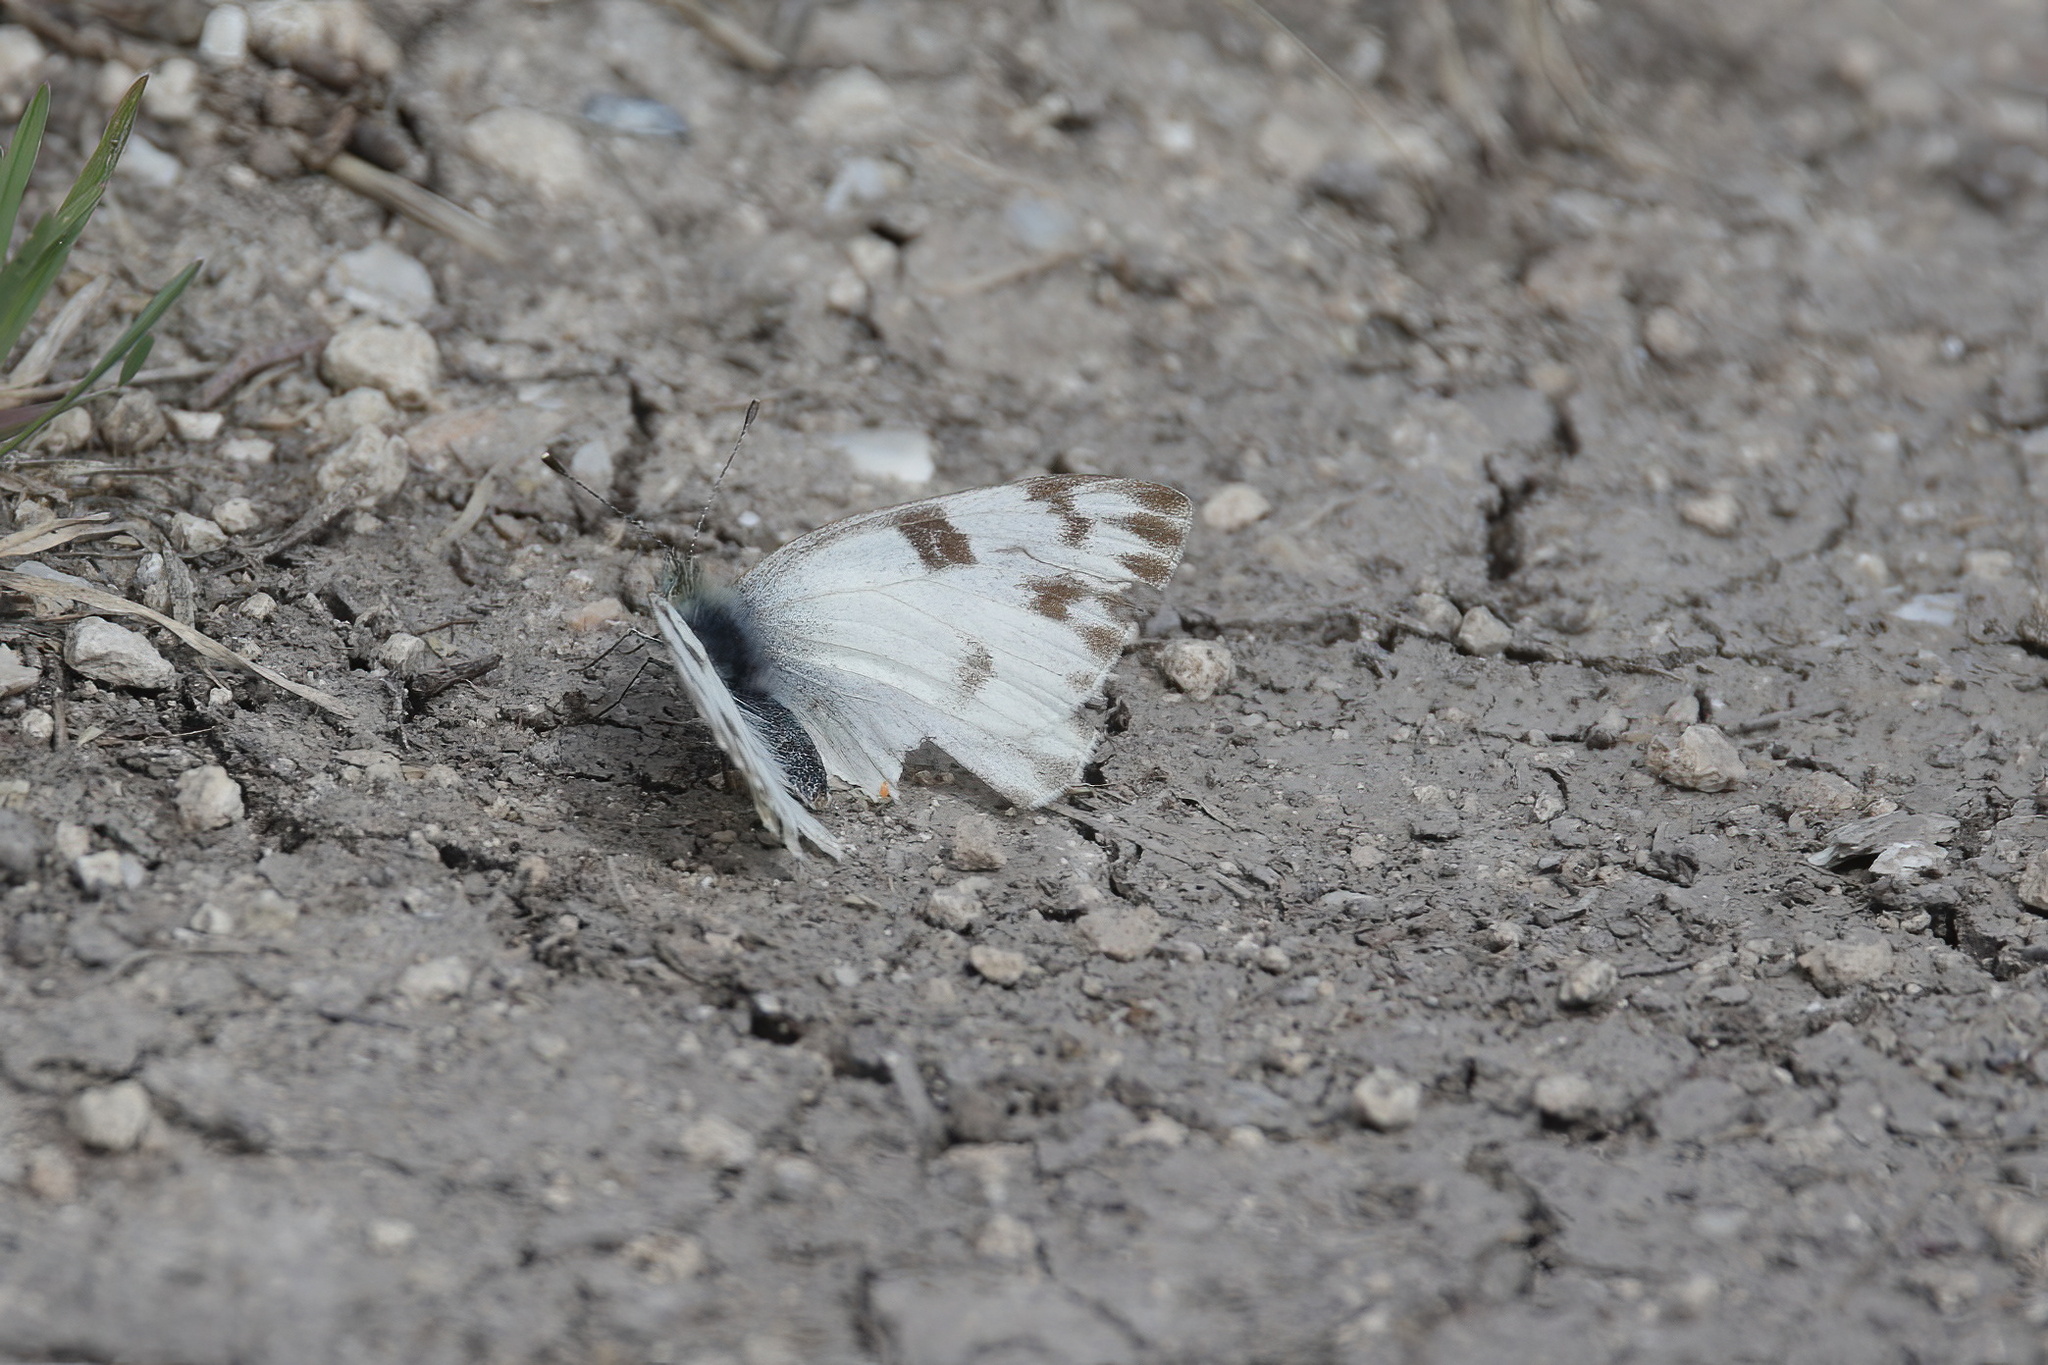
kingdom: Animalia
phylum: Arthropoda
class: Insecta
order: Lepidoptera
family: Pieridae
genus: Pontia
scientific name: Pontia protodice
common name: Checkered white
